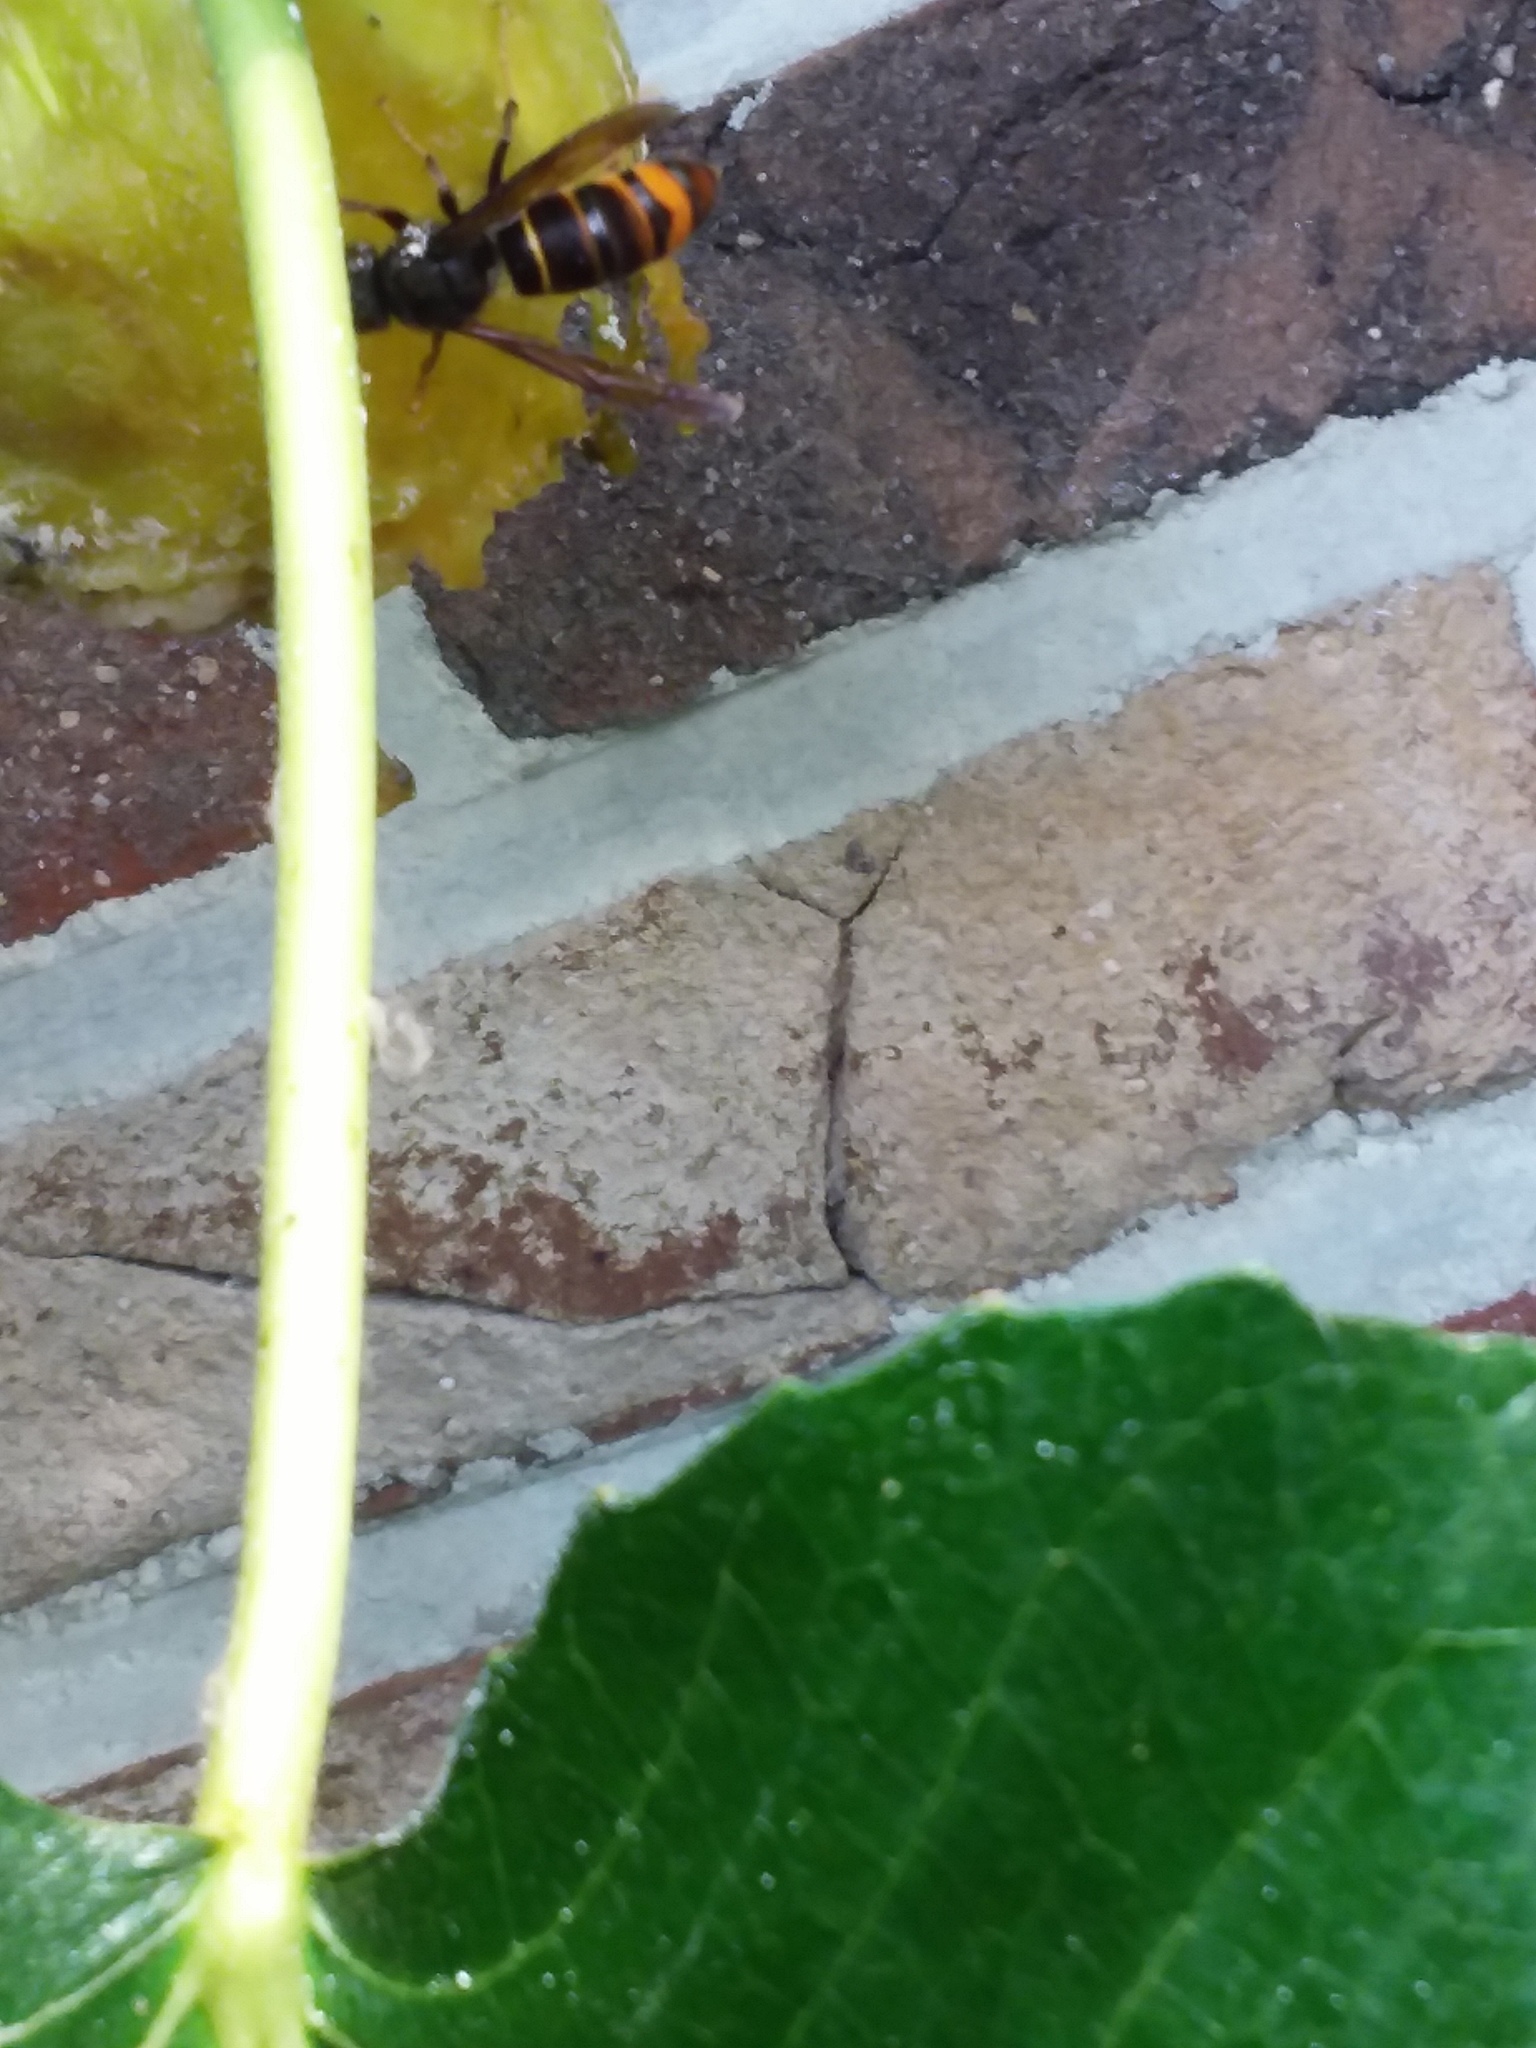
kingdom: Animalia
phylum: Arthropoda
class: Insecta
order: Hymenoptera
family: Vespidae
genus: Vespa
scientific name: Vespa velutina
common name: Asian hornet
